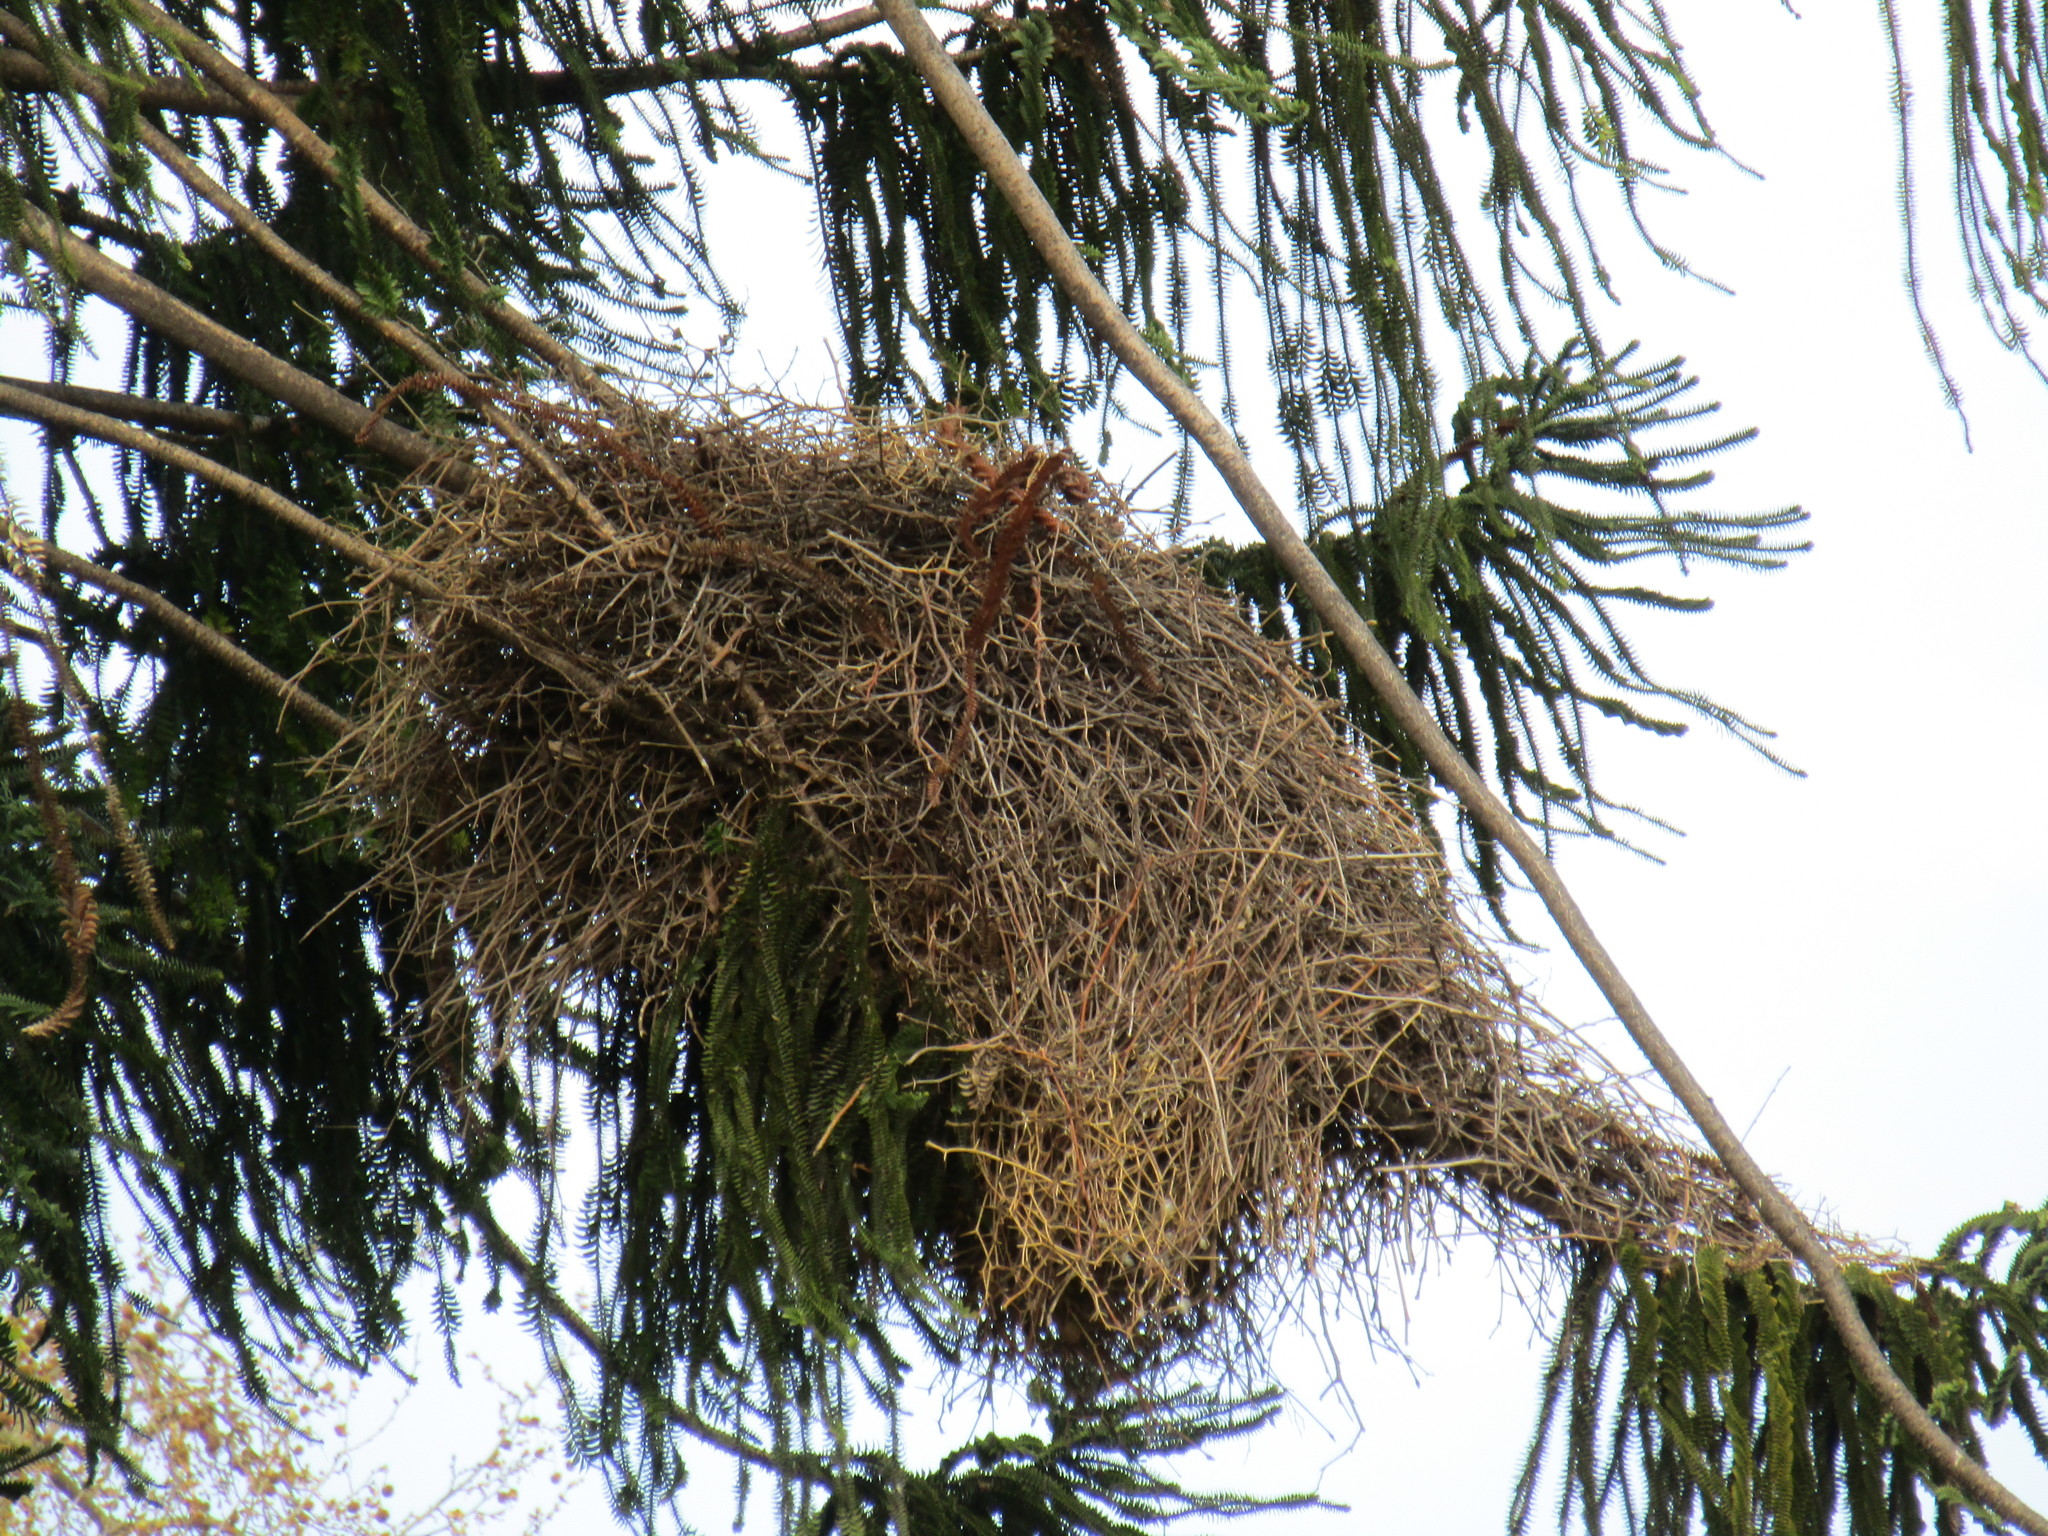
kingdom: Animalia
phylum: Chordata
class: Aves
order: Psittaciformes
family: Psittacidae
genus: Myiopsitta
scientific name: Myiopsitta monachus
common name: Monk parakeet
